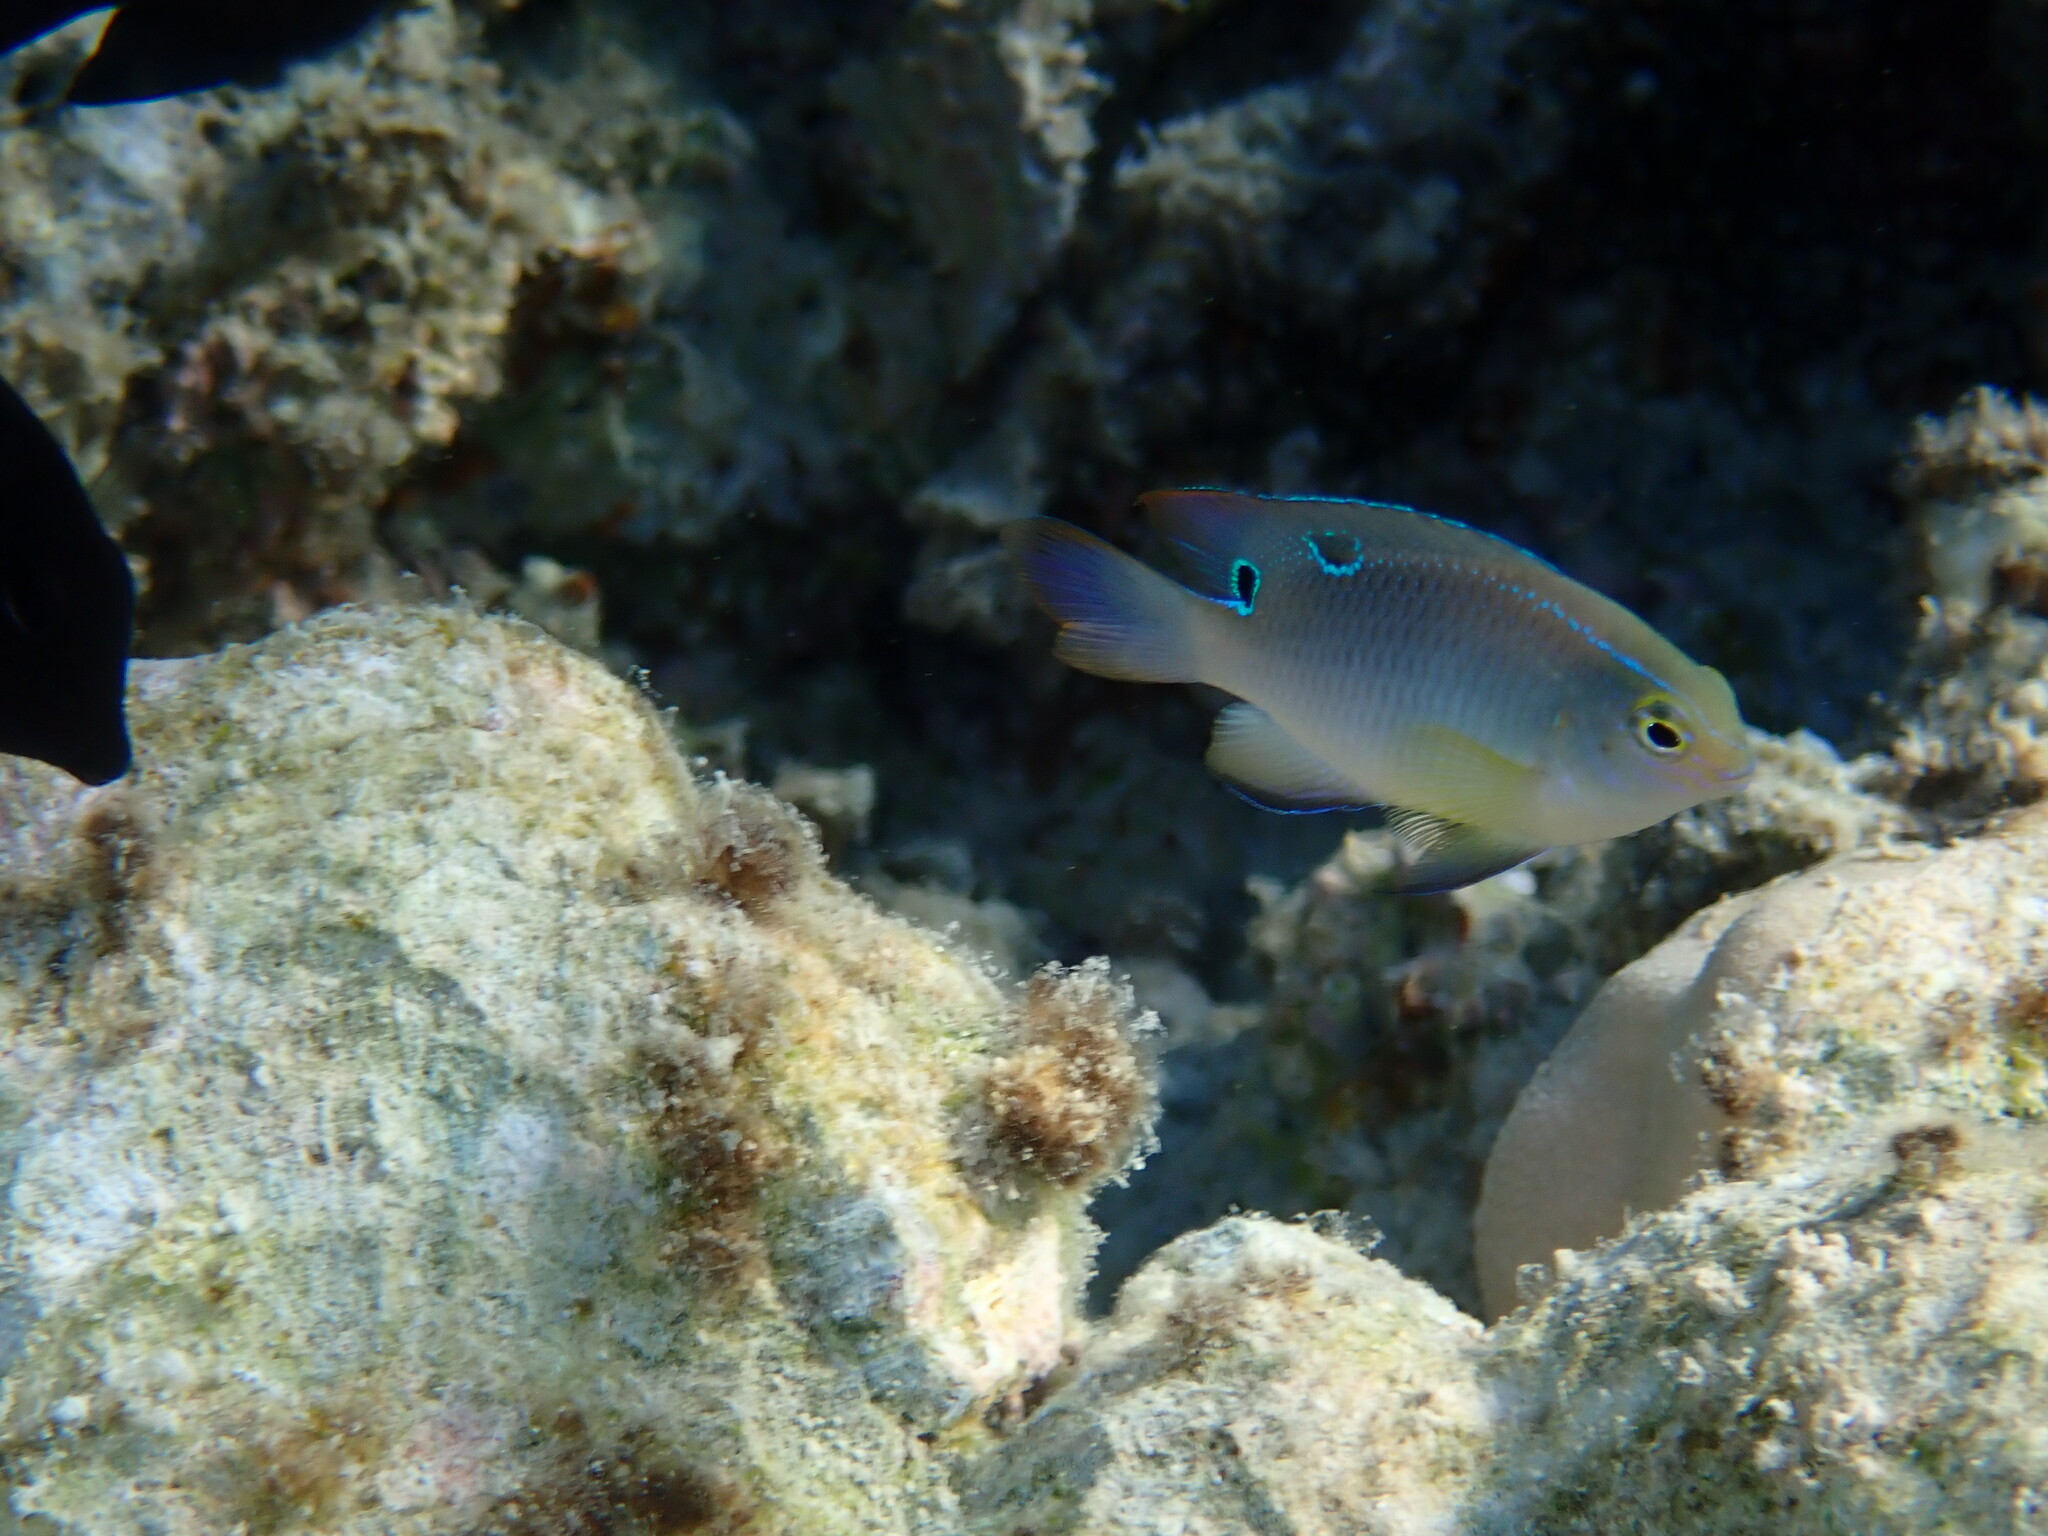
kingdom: Animalia
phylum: Chordata
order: Perciformes
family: Pomacentridae
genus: Chrysiptera
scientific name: Chrysiptera unimaculata
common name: Onespot demoiselle
